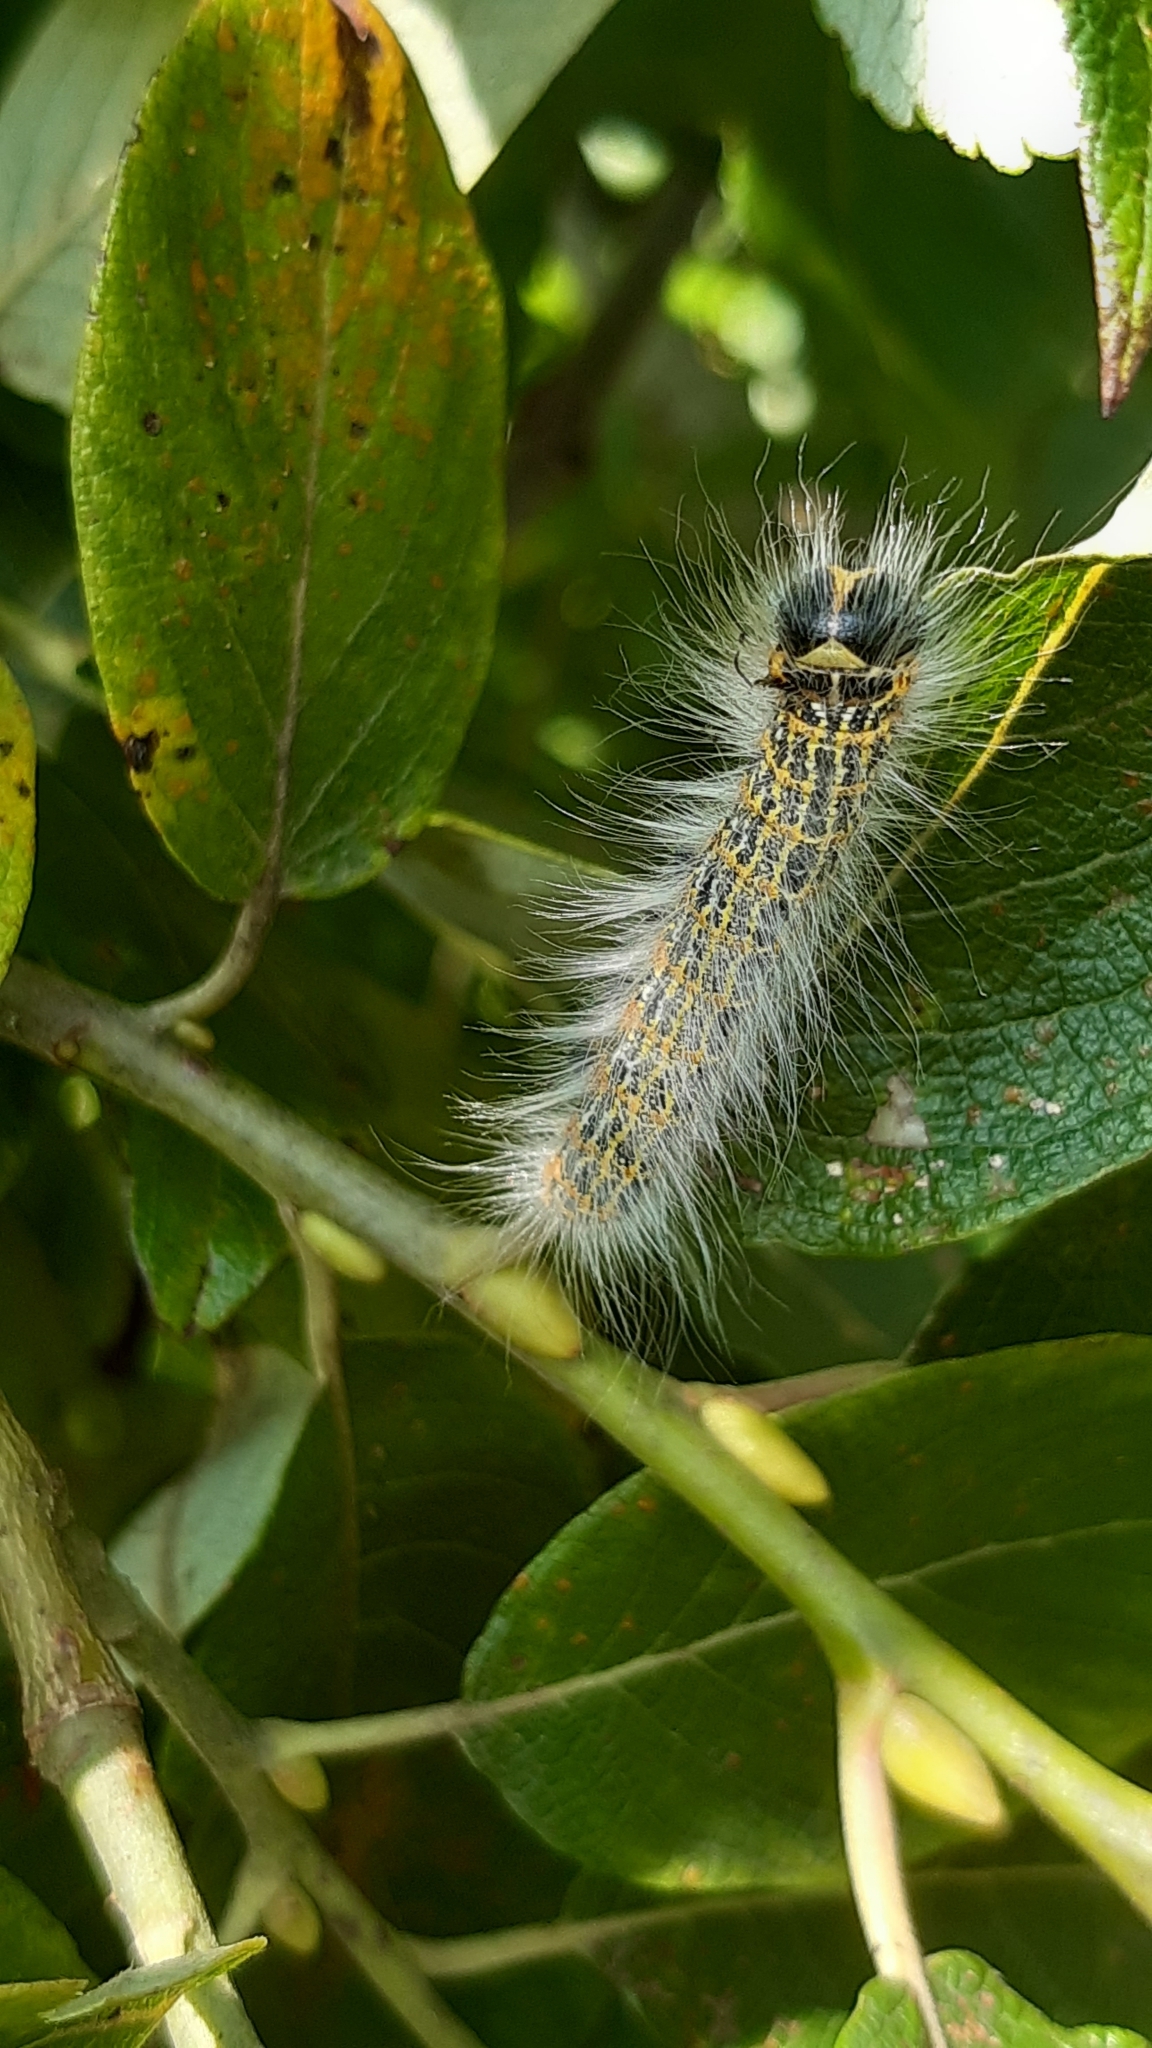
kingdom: Animalia
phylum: Arthropoda
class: Insecta
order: Lepidoptera
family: Notodontidae
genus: Phalera
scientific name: Phalera bucephala
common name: Buff-tip
